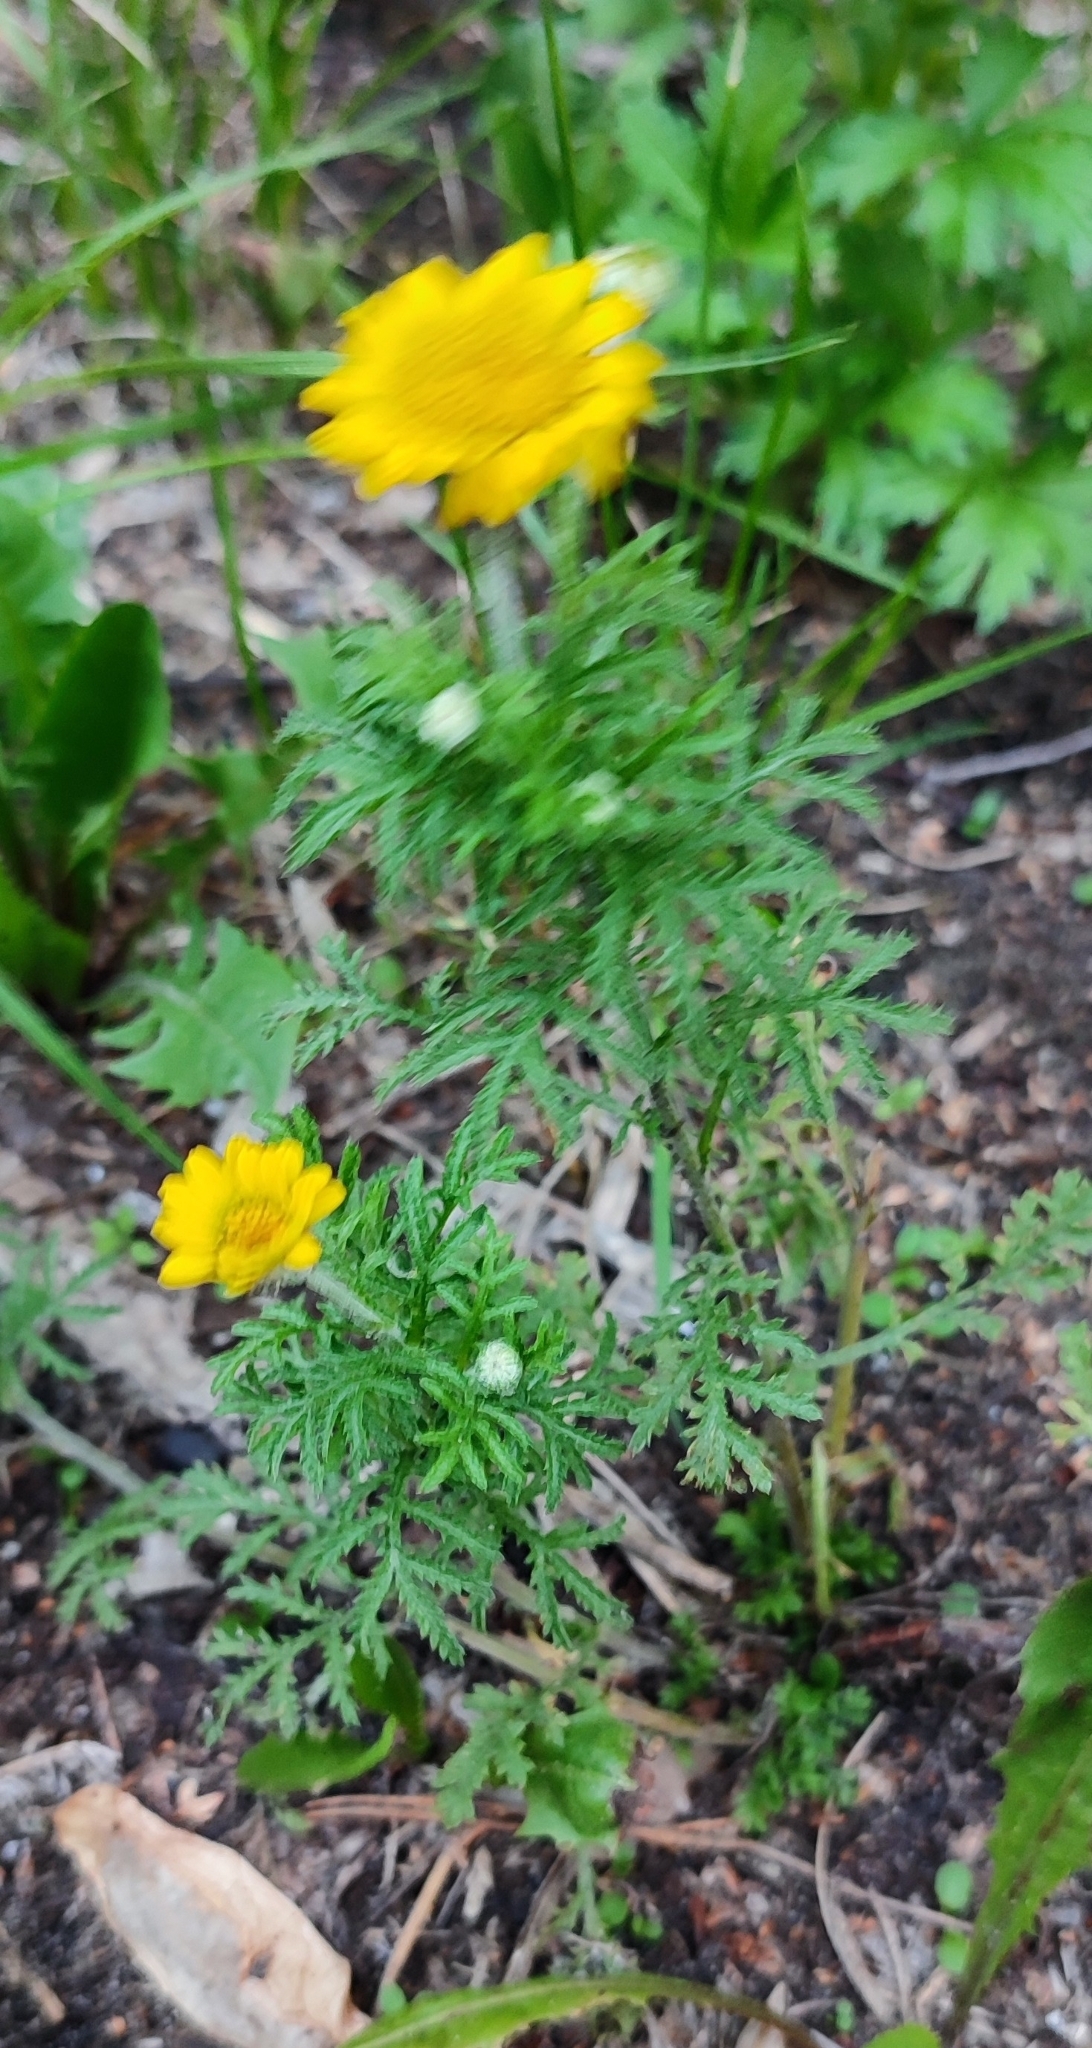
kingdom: Plantae
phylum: Tracheophyta
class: Magnoliopsida
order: Asterales
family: Asteraceae
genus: Cota
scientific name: Cota tinctoria
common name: Golden chamomile
